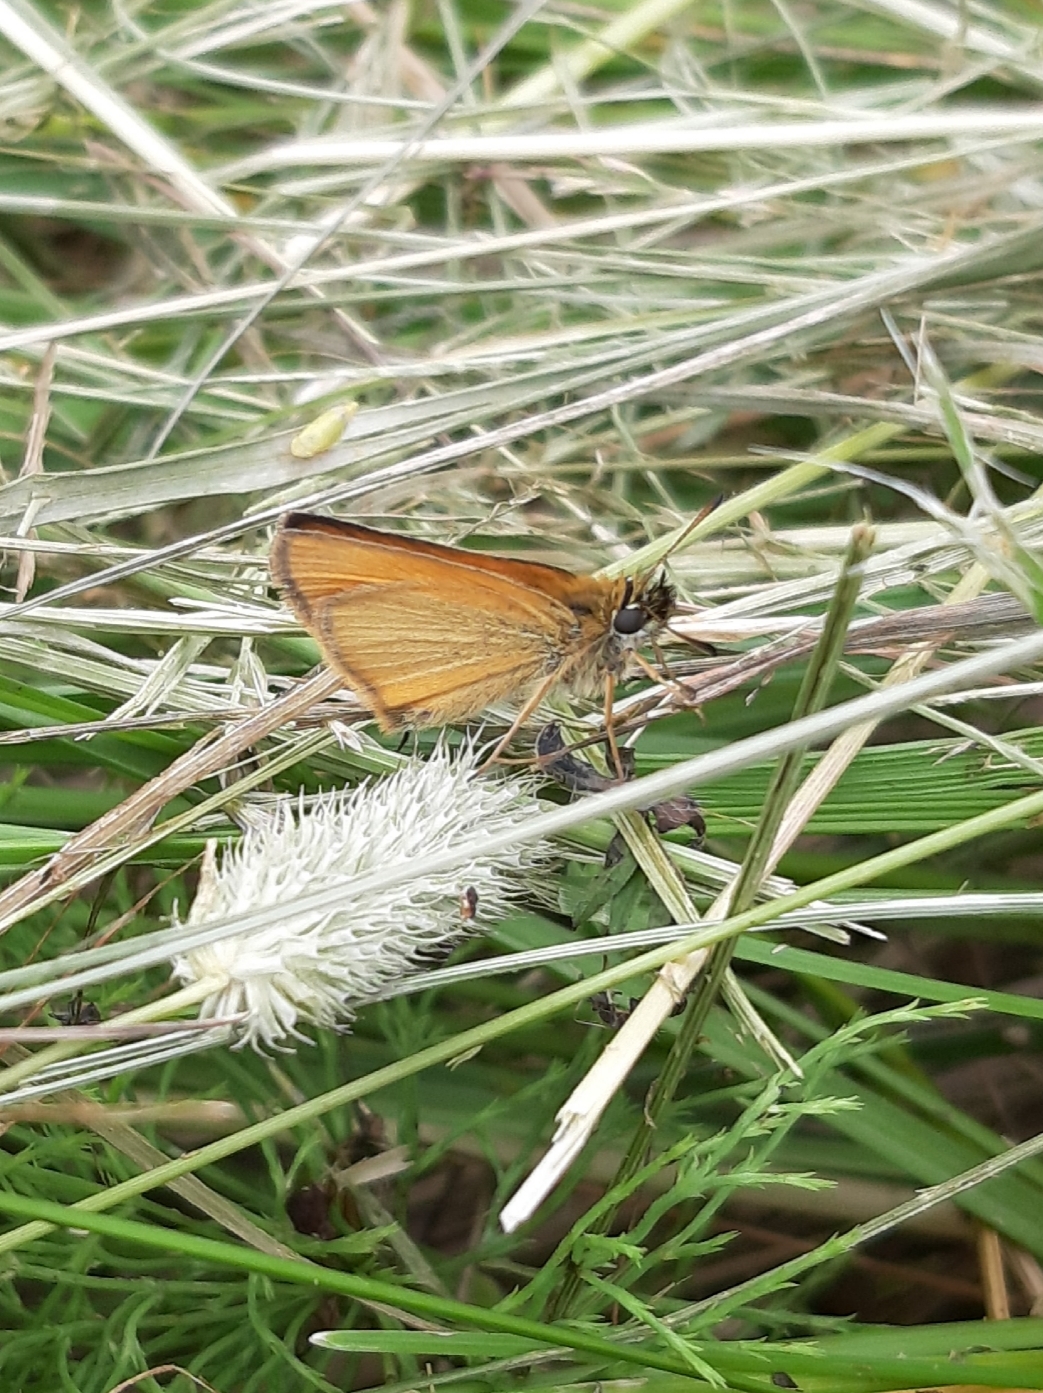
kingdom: Animalia
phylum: Arthropoda
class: Insecta
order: Lepidoptera
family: Hesperiidae
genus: Thymelicus
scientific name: Thymelicus lineola
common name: Essex skipper
